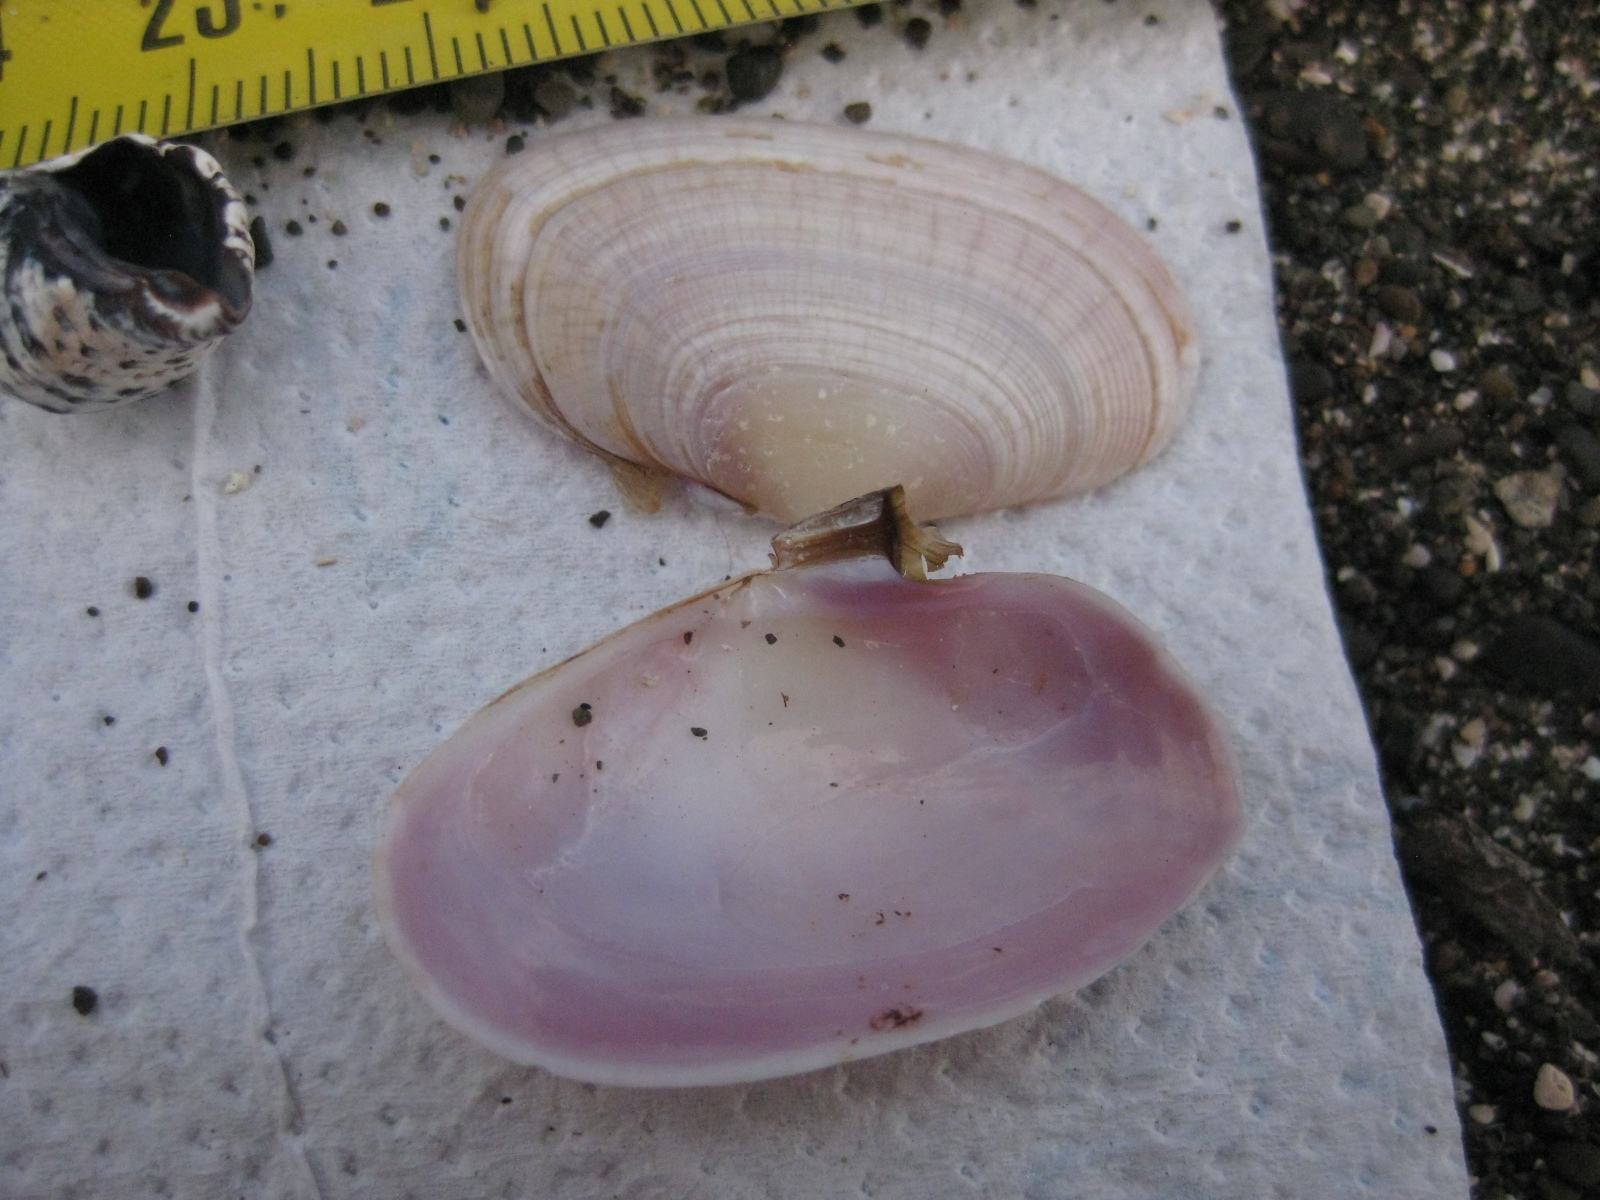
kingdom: Animalia
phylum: Mollusca
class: Bivalvia
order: Cardiida
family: Psammobiidae
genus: Gari
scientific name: Gari stangeri
